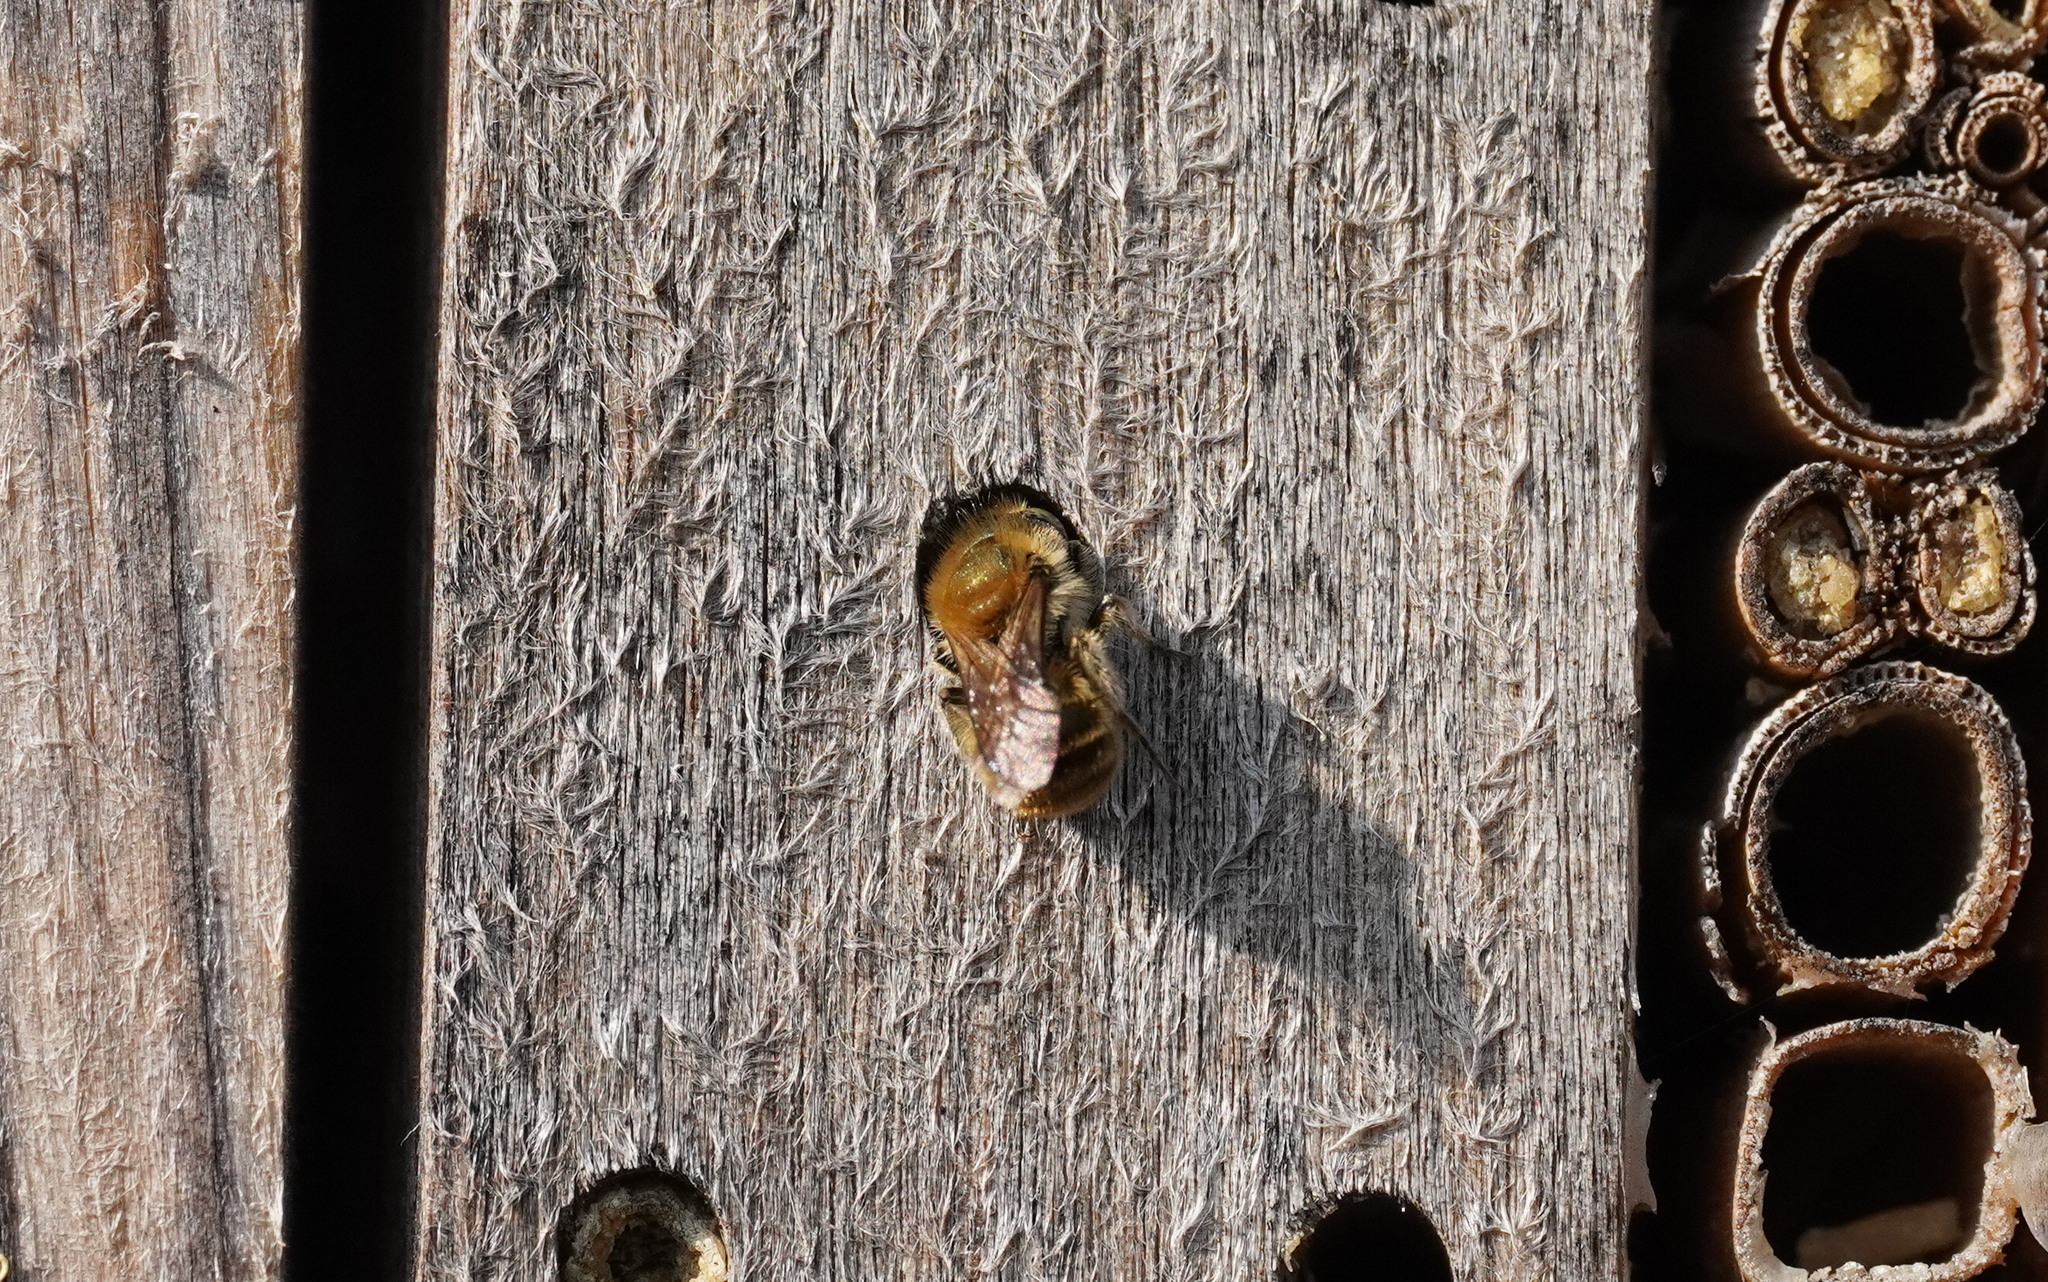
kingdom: Animalia
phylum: Arthropoda
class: Insecta
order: Hymenoptera
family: Megachilidae
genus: Osmia
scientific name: Osmia caerulescens
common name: Blue mason bee
